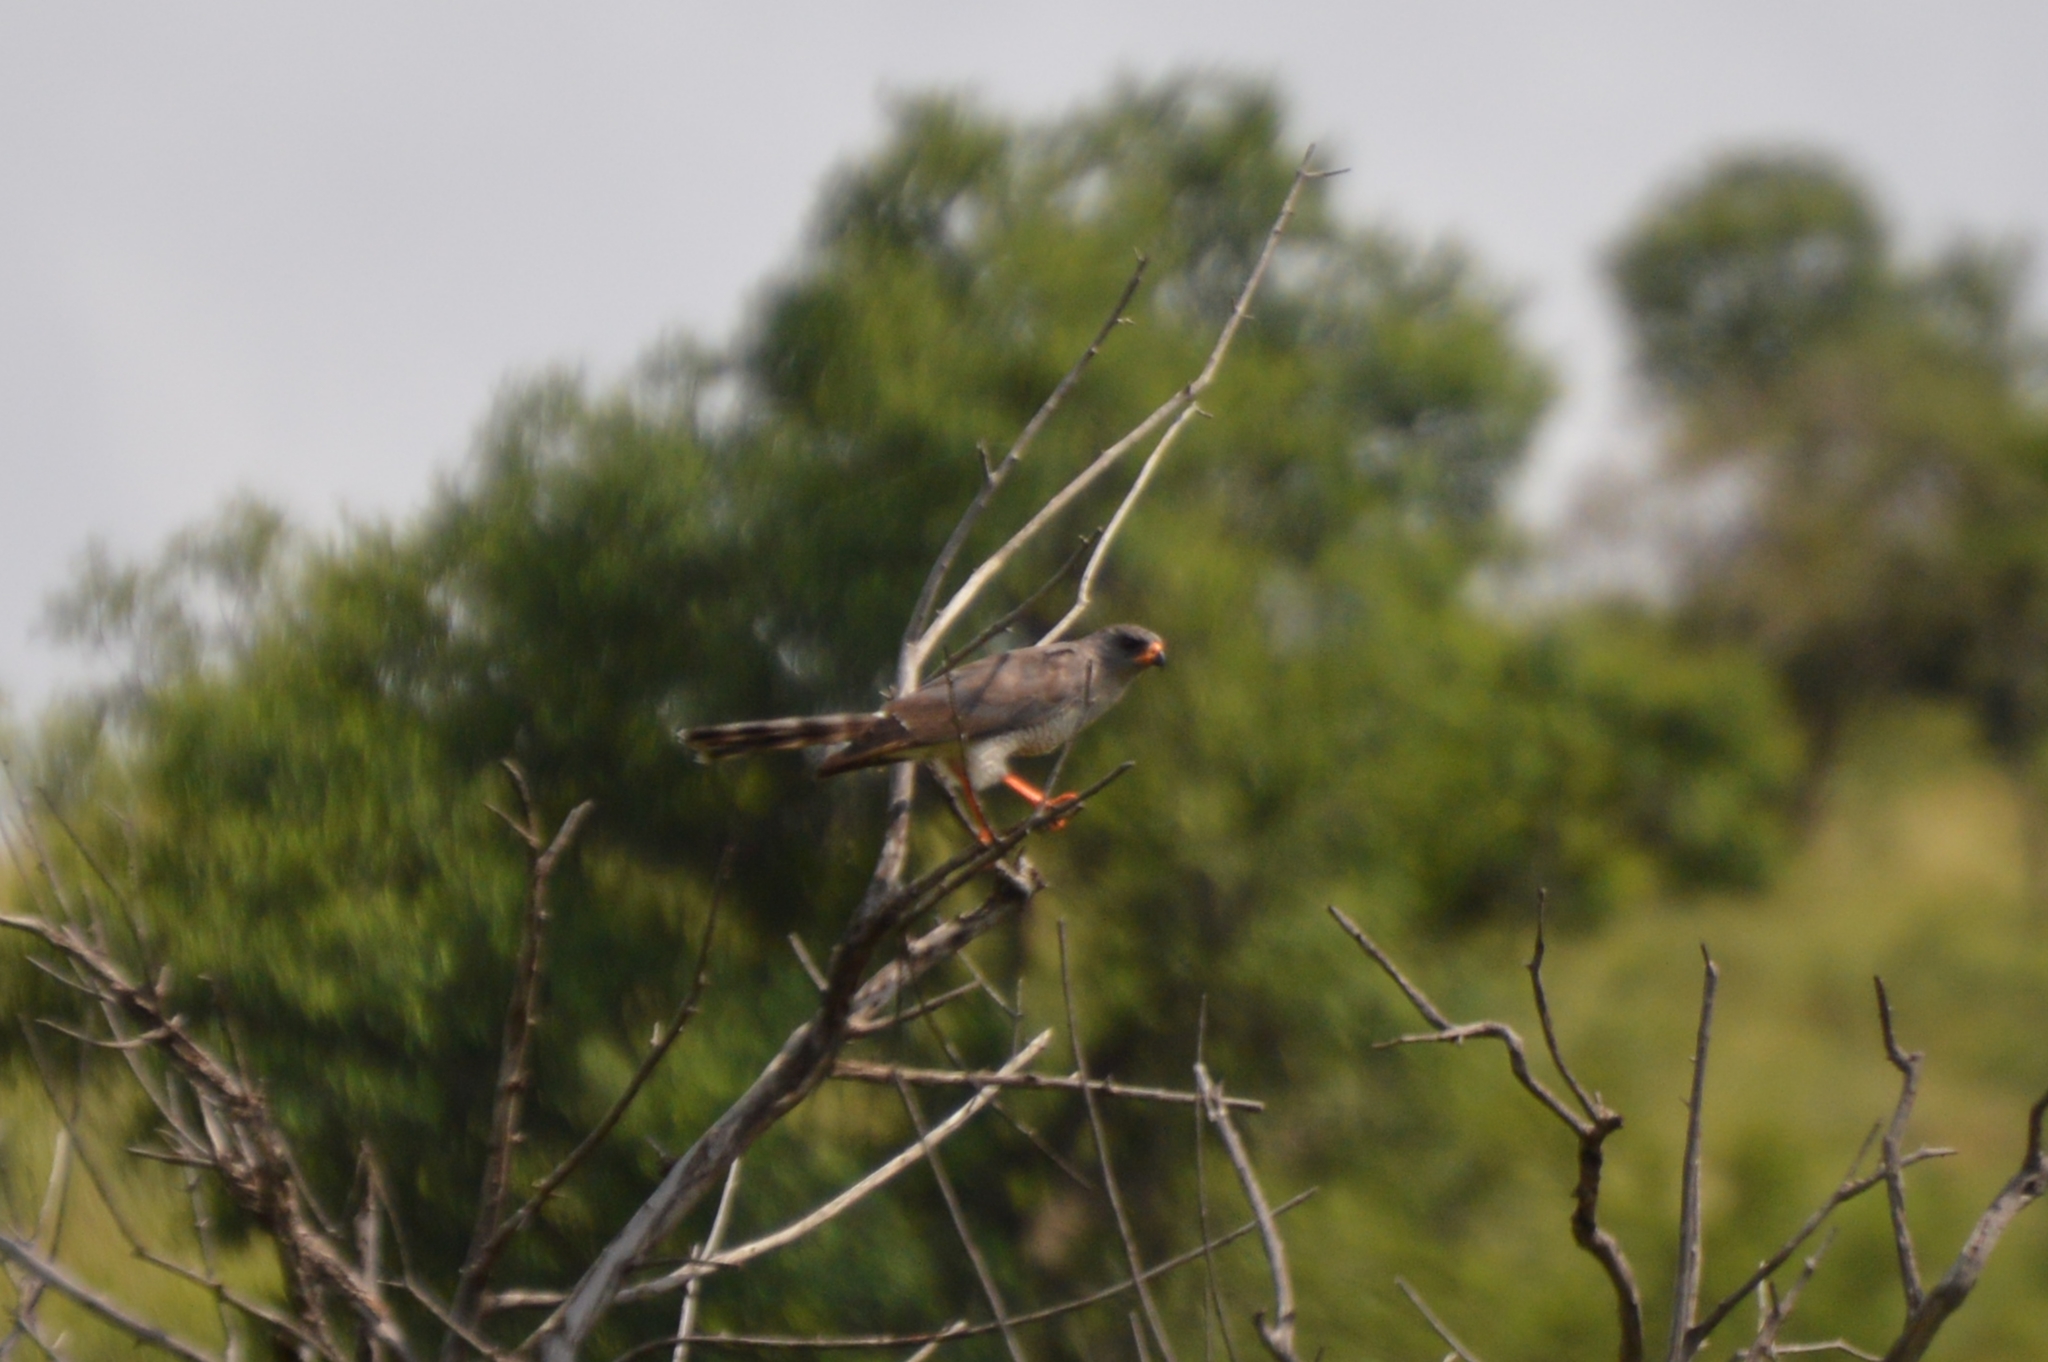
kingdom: Animalia
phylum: Chordata
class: Aves
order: Accipitriformes
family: Accipitridae
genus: Micronisus
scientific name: Micronisus gabar
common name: Gabar goshawk
